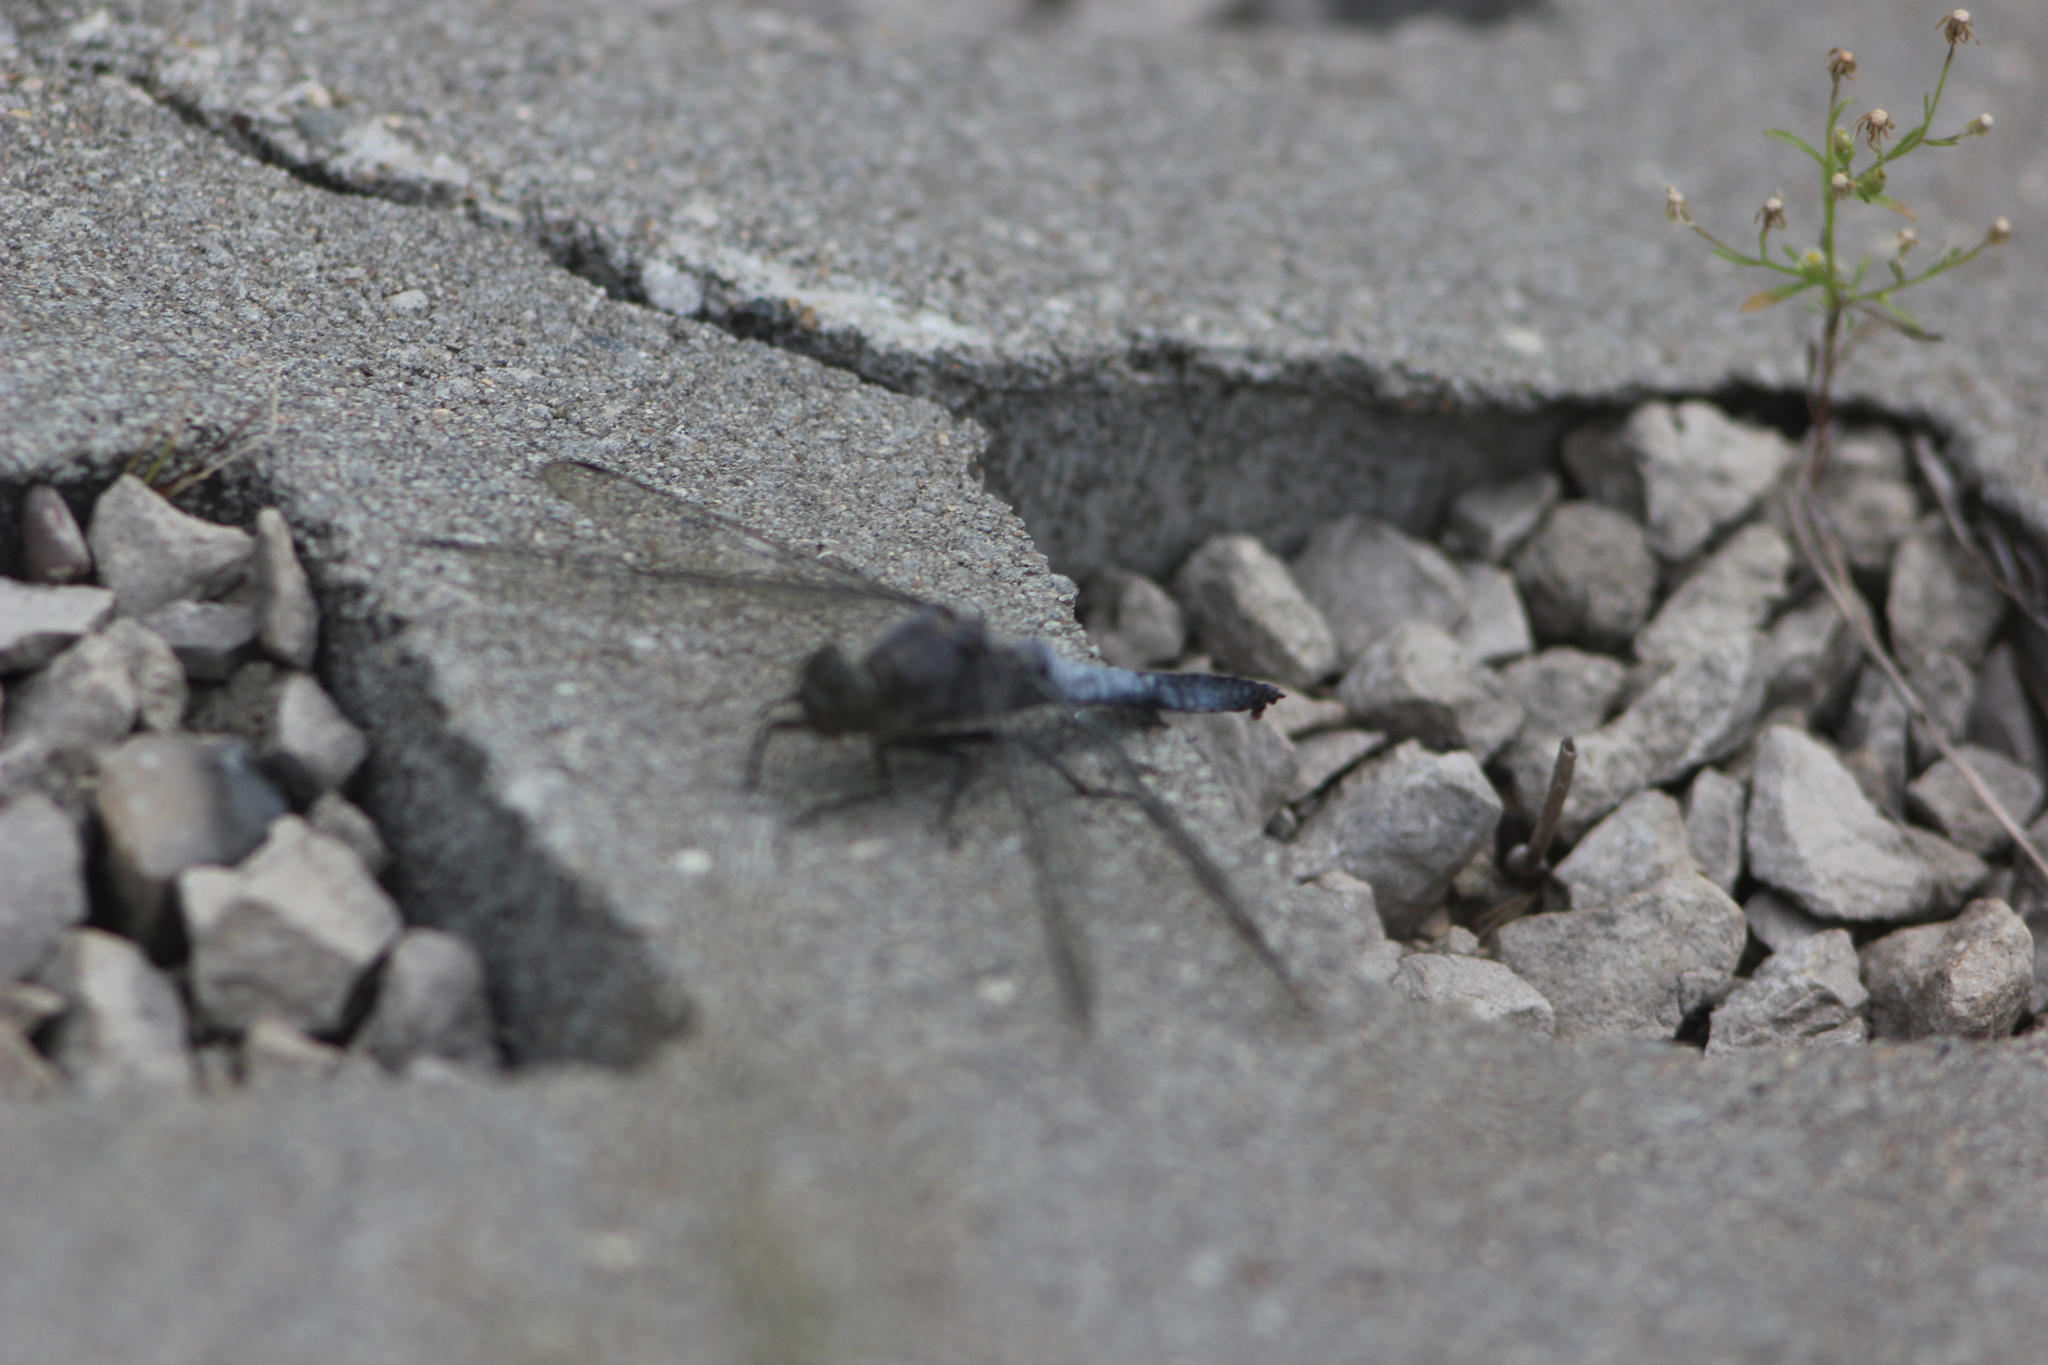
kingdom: Animalia
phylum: Arthropoda
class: Insecta
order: Odonata
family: Libellulidae
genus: Orthetrum
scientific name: Orthetrum cancellatum
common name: Black-tailed skimmer
